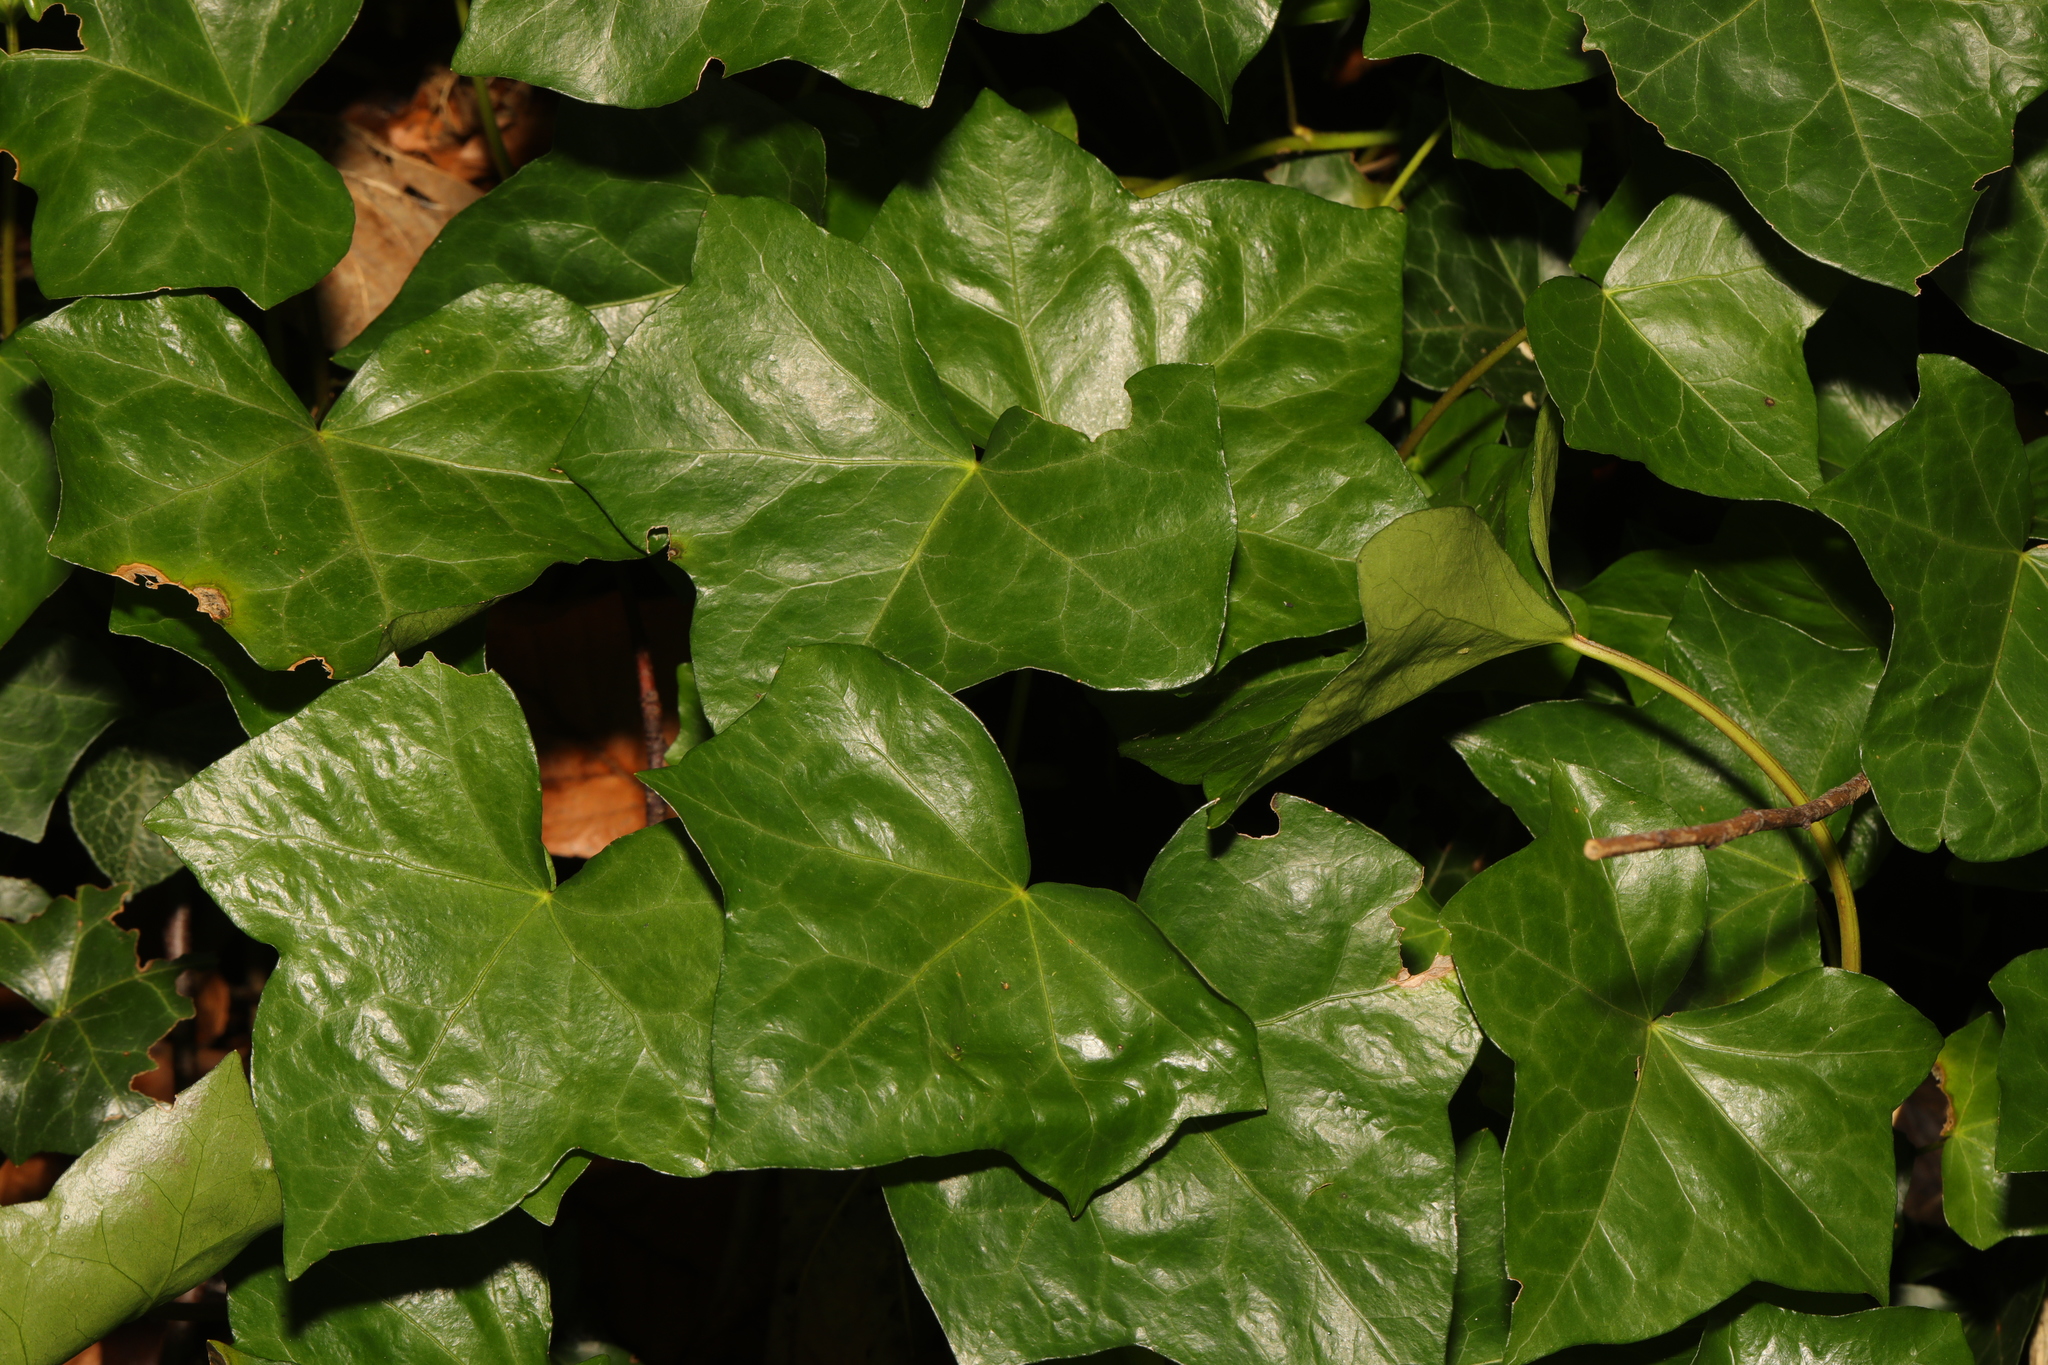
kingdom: Plantae
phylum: Tracheophyta
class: Magnoliopsida
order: Apiales
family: Araliaceae
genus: Hedera
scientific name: Hedera helix
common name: Ivy
